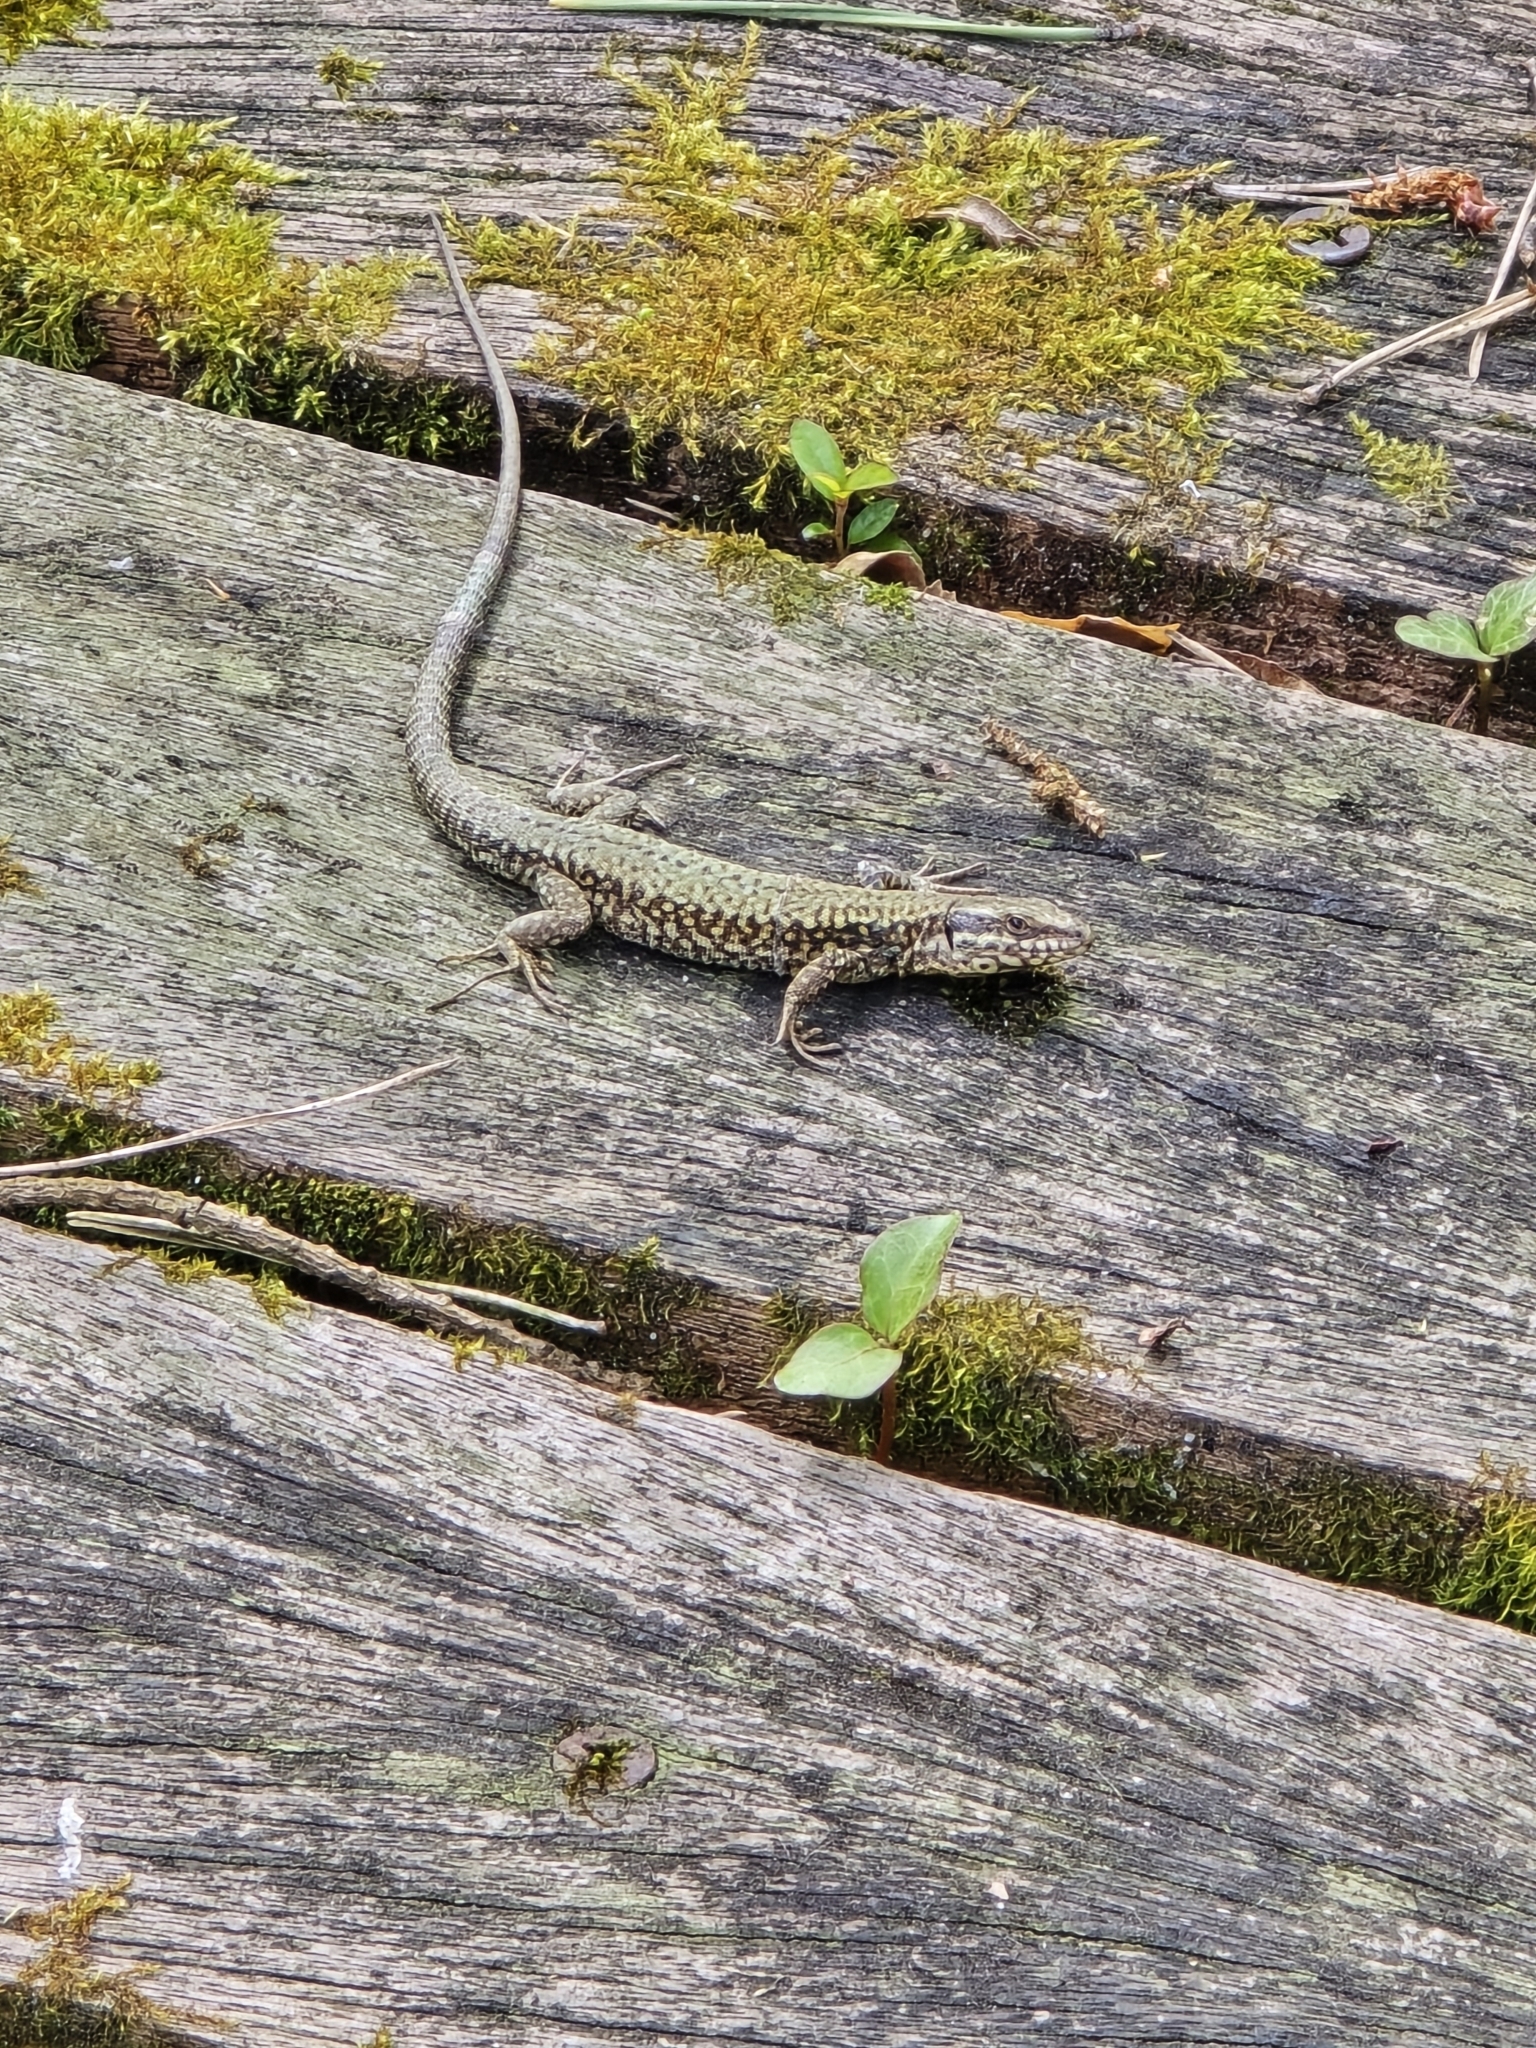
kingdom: Animalia
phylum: Chordata
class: Squamata
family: Lacertidae
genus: Podarcis
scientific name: Podarcis muralis
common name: Common wall lizard
